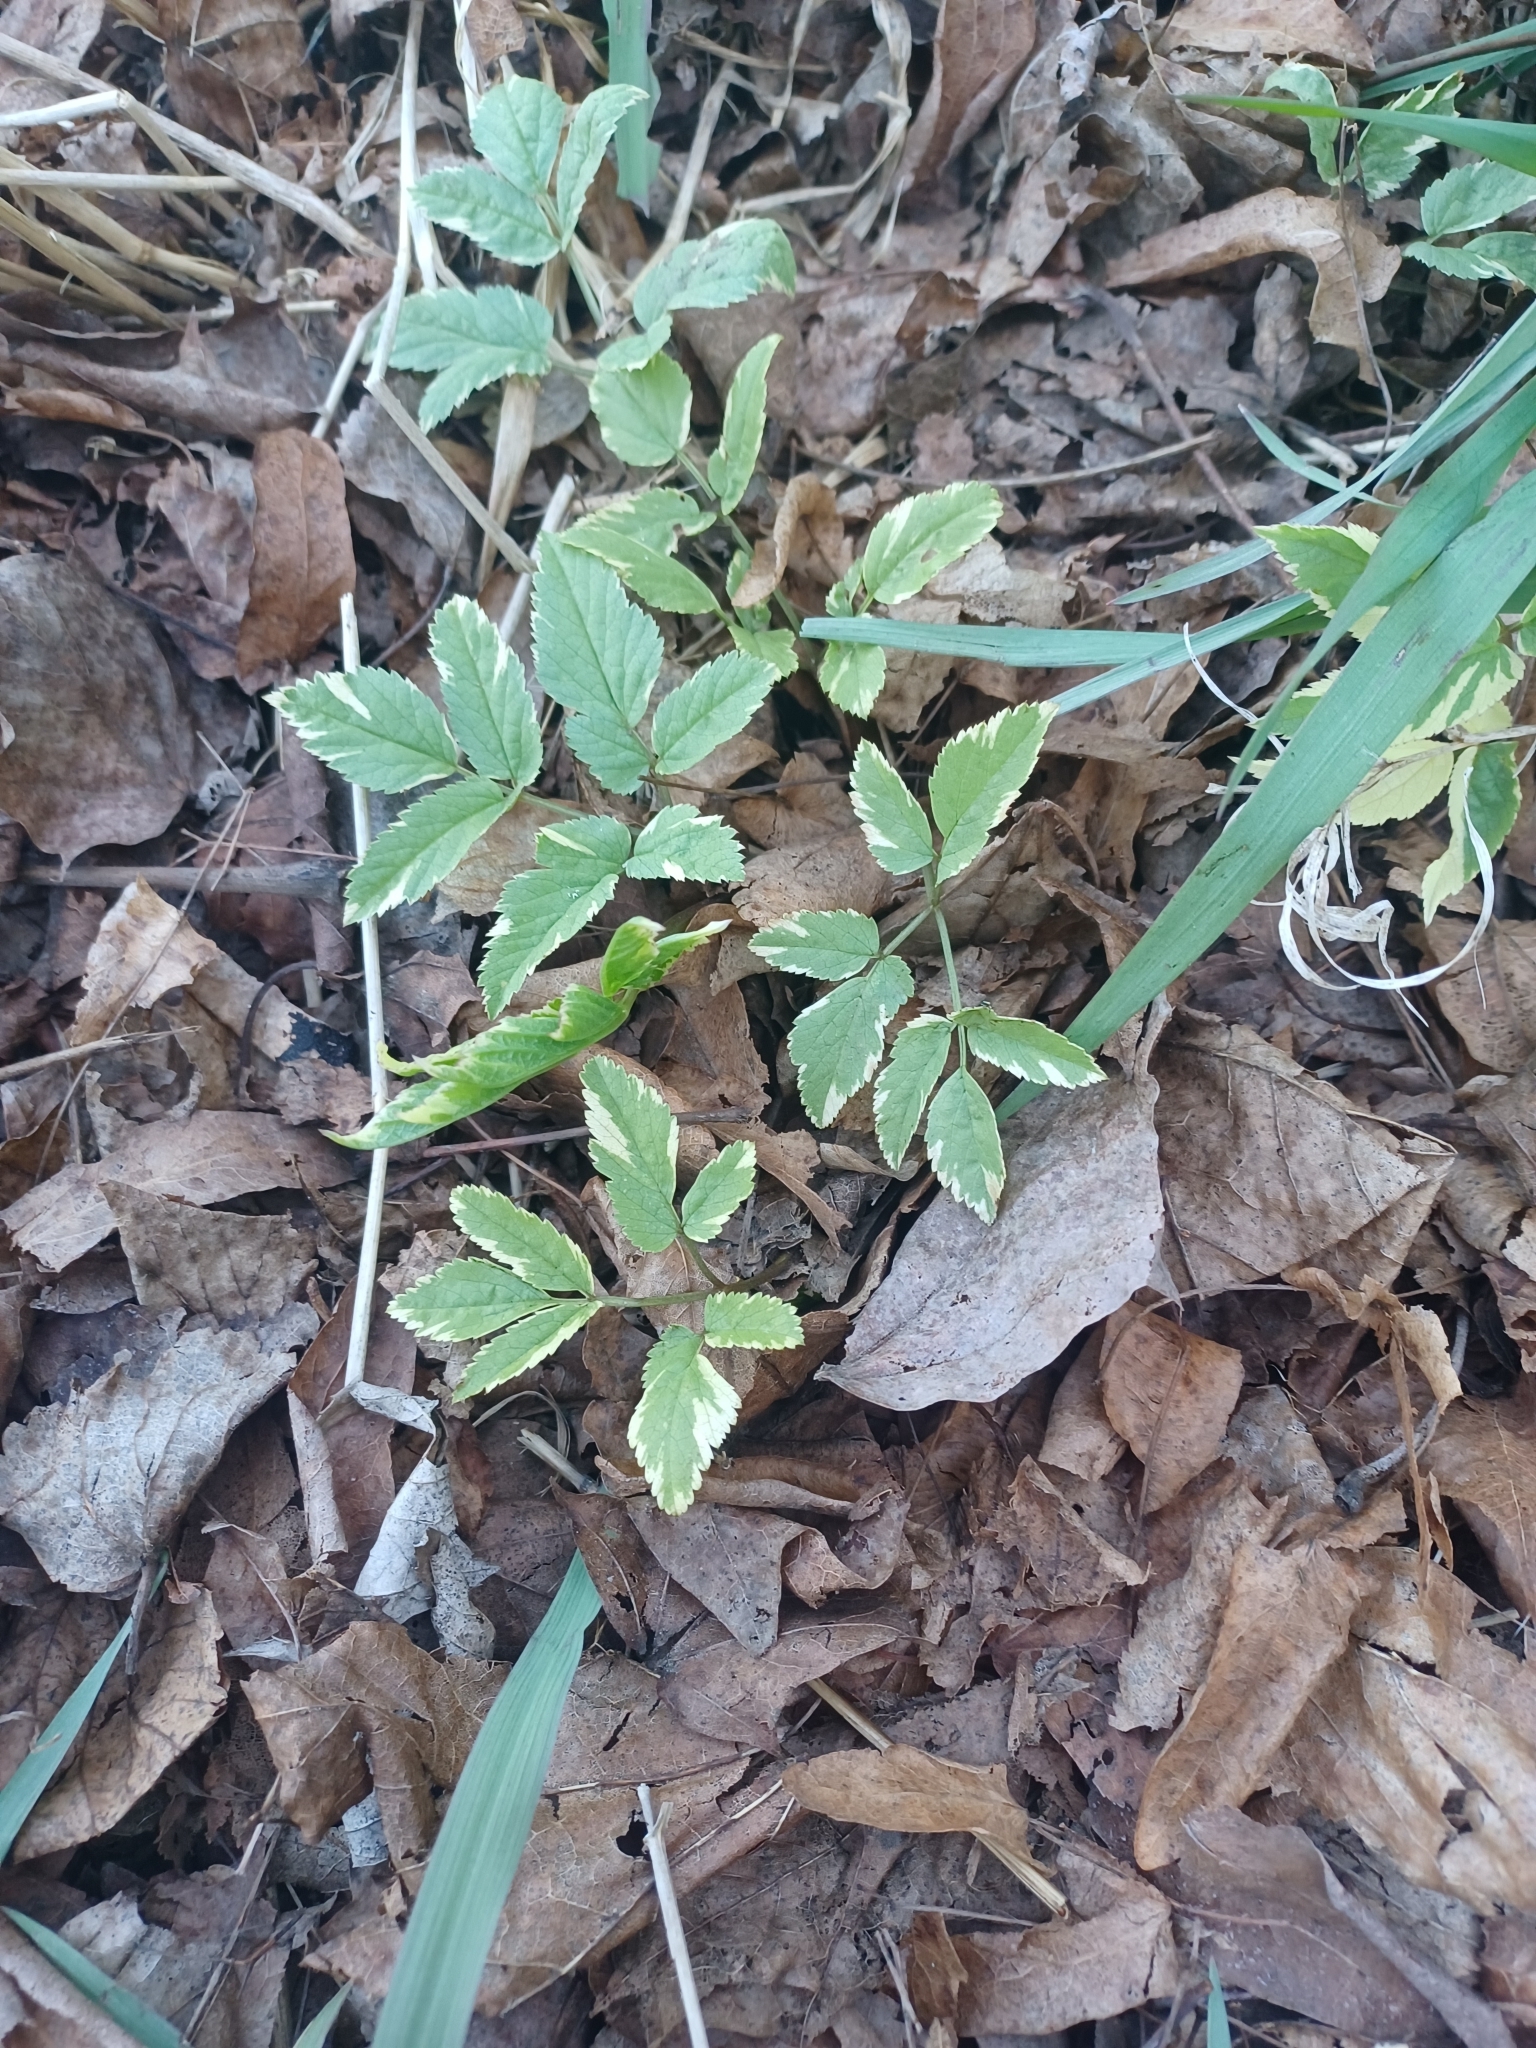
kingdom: Plantae
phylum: Tracheophyta
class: Magnoliopsida
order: Apiales
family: Apiaceae
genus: Aegopodium
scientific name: Aegopodium podagraria
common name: Ground-elder
